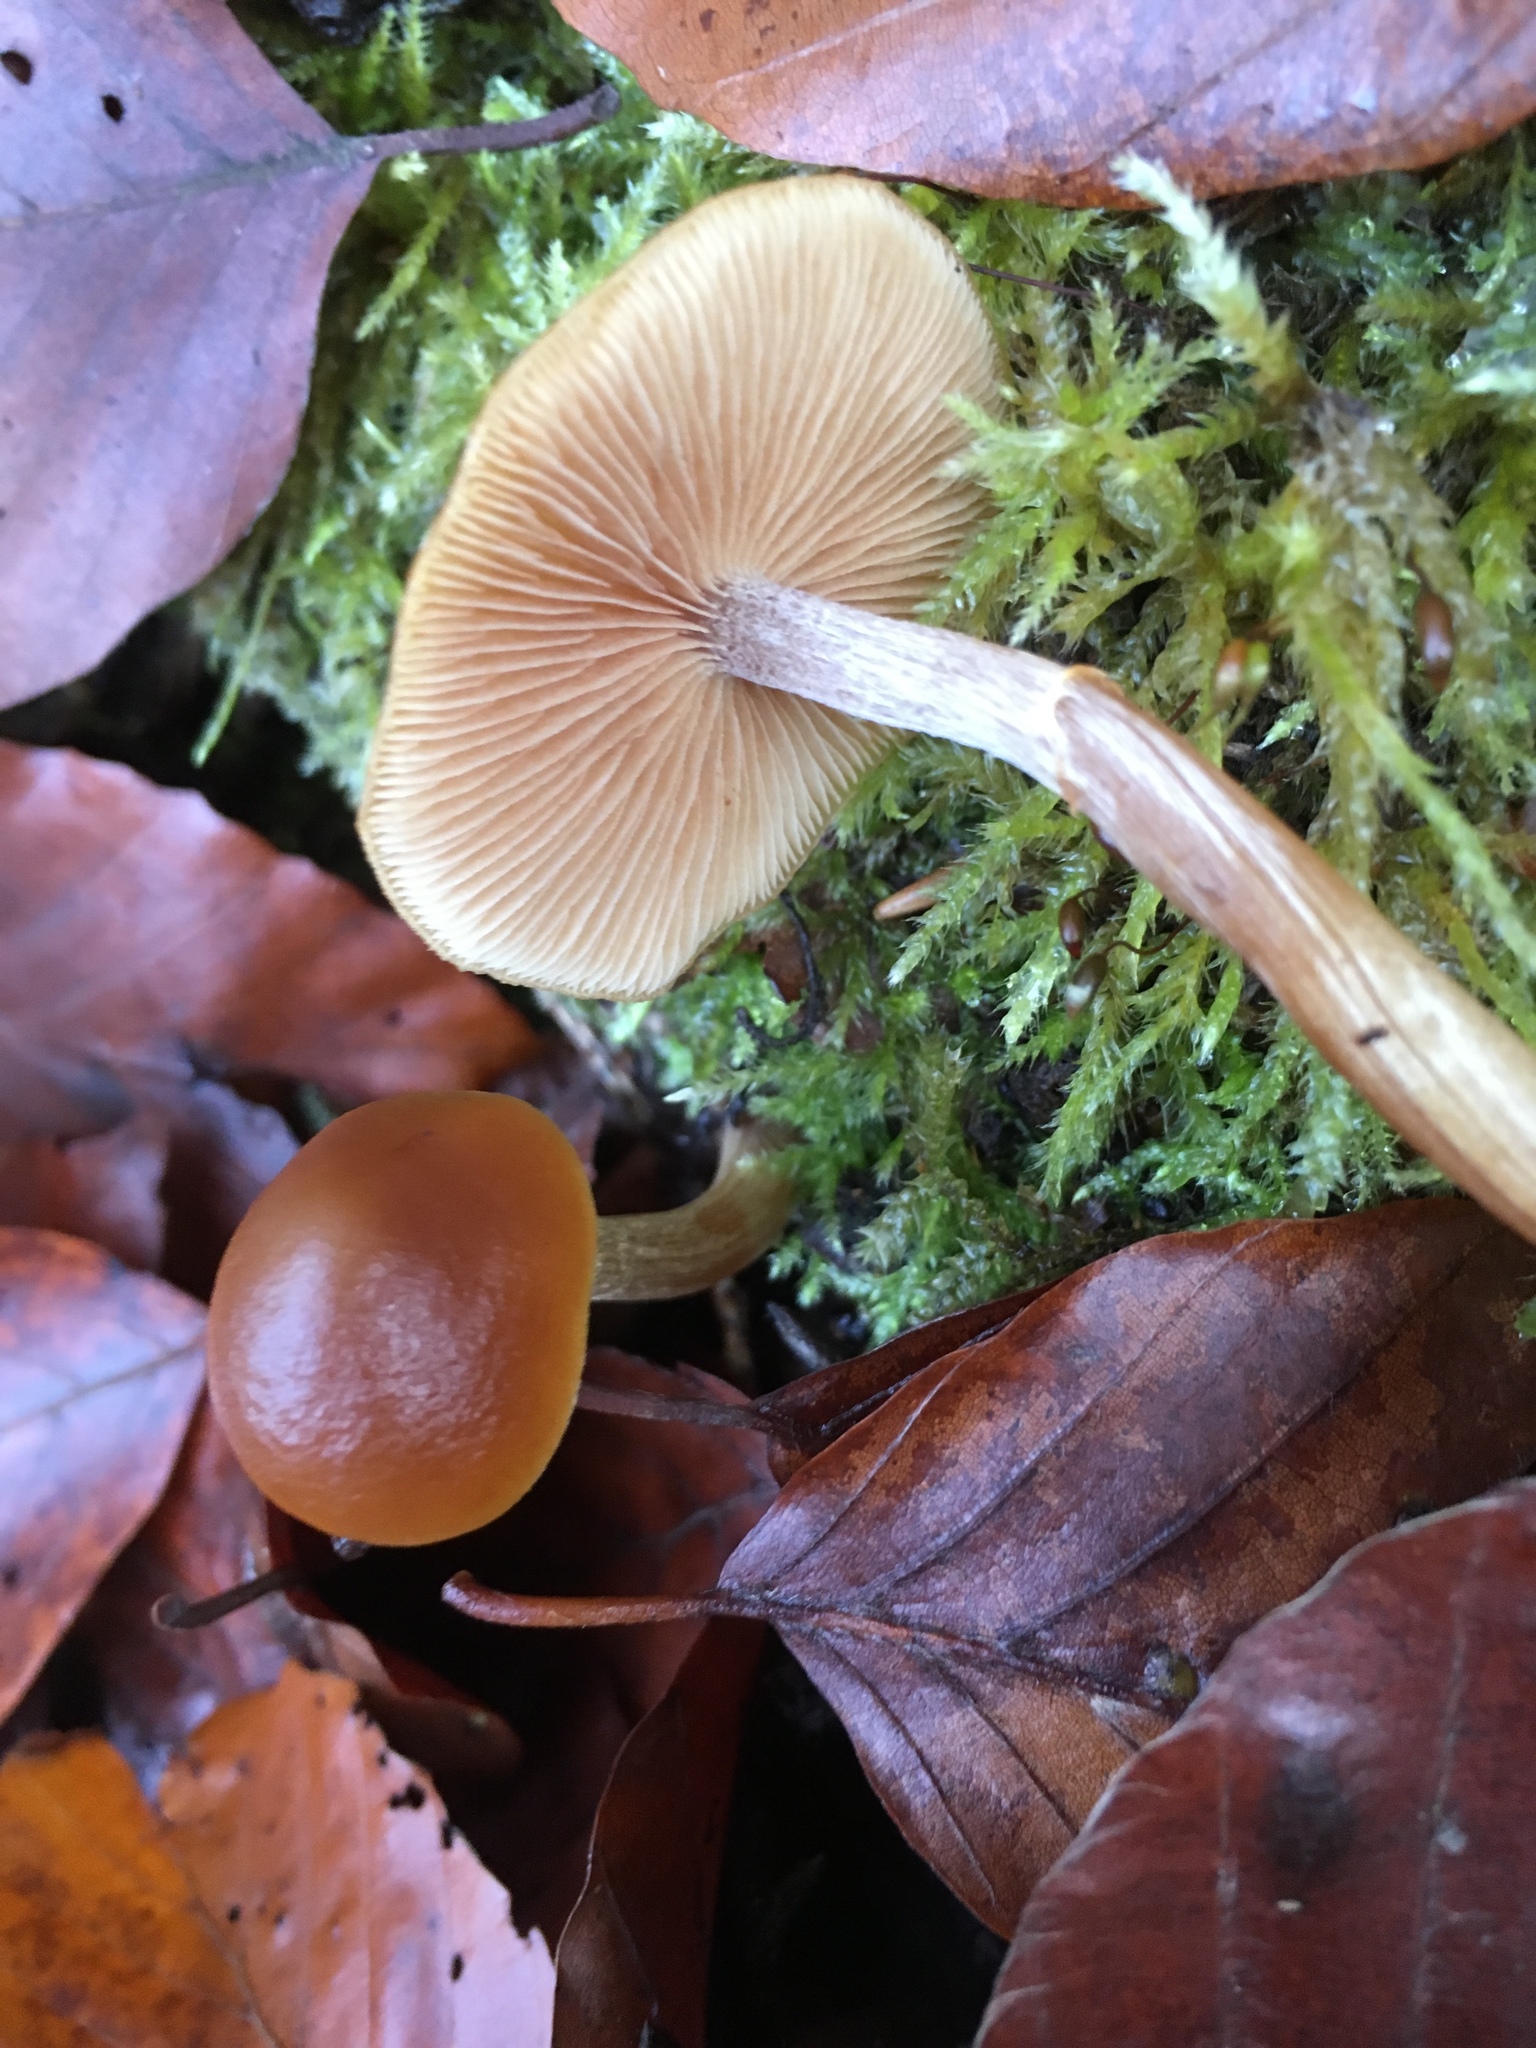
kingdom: Fungi
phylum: Basidiomycota
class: Agaricomycetes
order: Agaricales
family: Hymenogastraceae
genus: Galerina
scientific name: Galerina marginata
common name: Funeral bell
